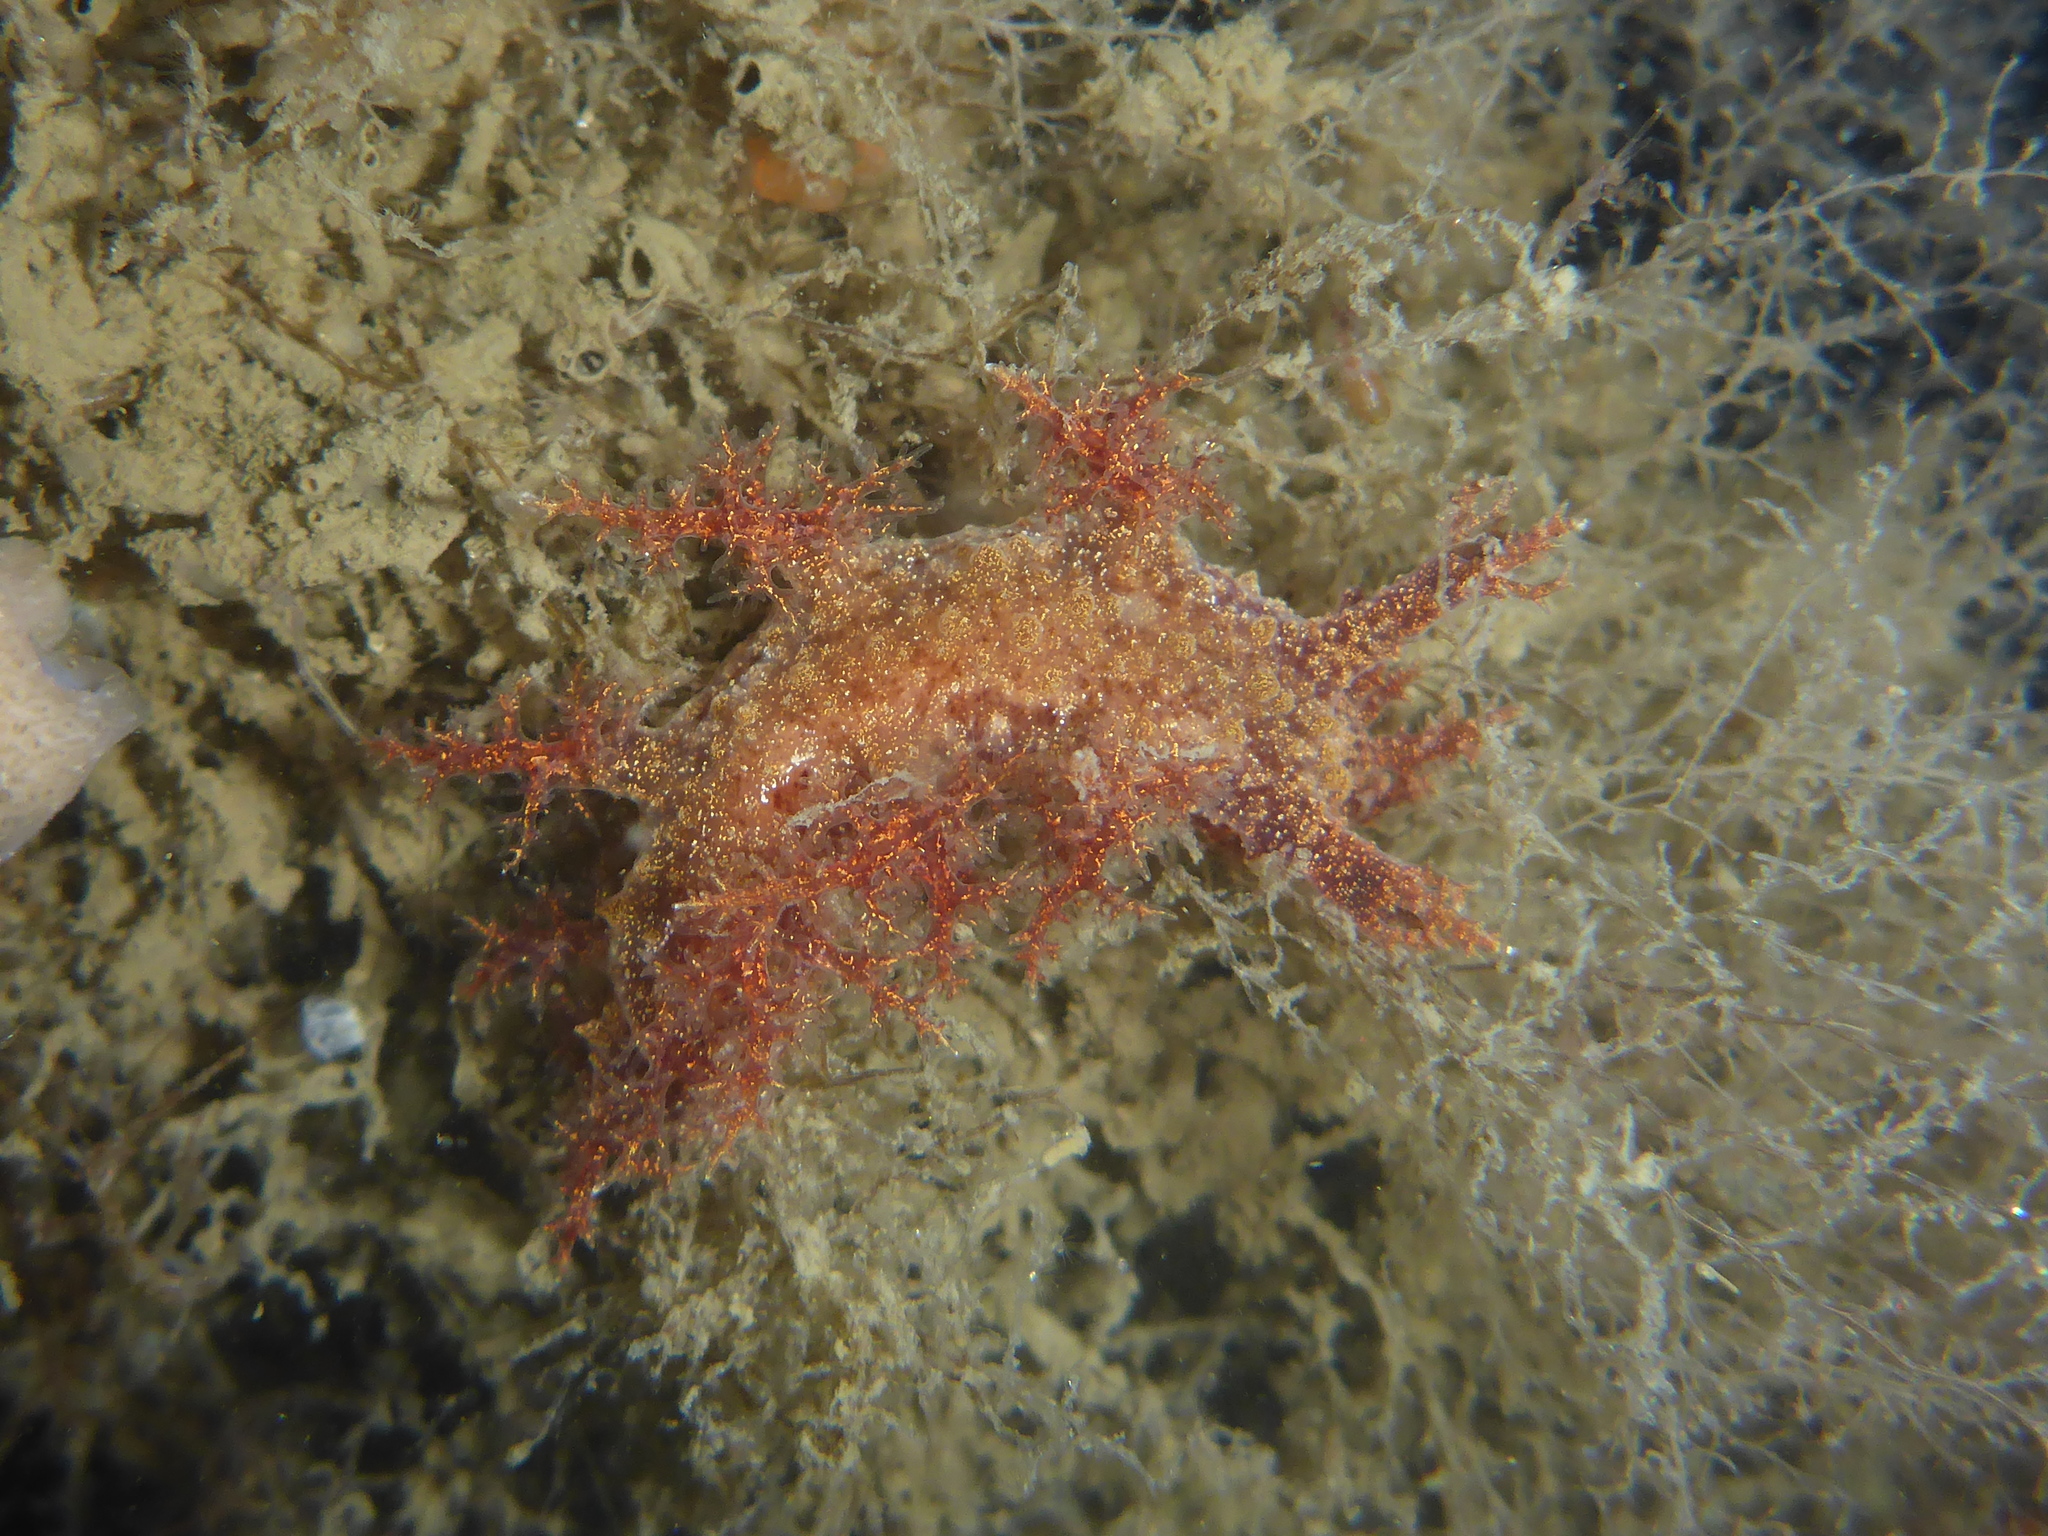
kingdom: Animalia
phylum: Mollusca
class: Gastropoda
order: Nudibranchia
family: Dendronotidae
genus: Dendronotus
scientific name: Dendronotus venustus
